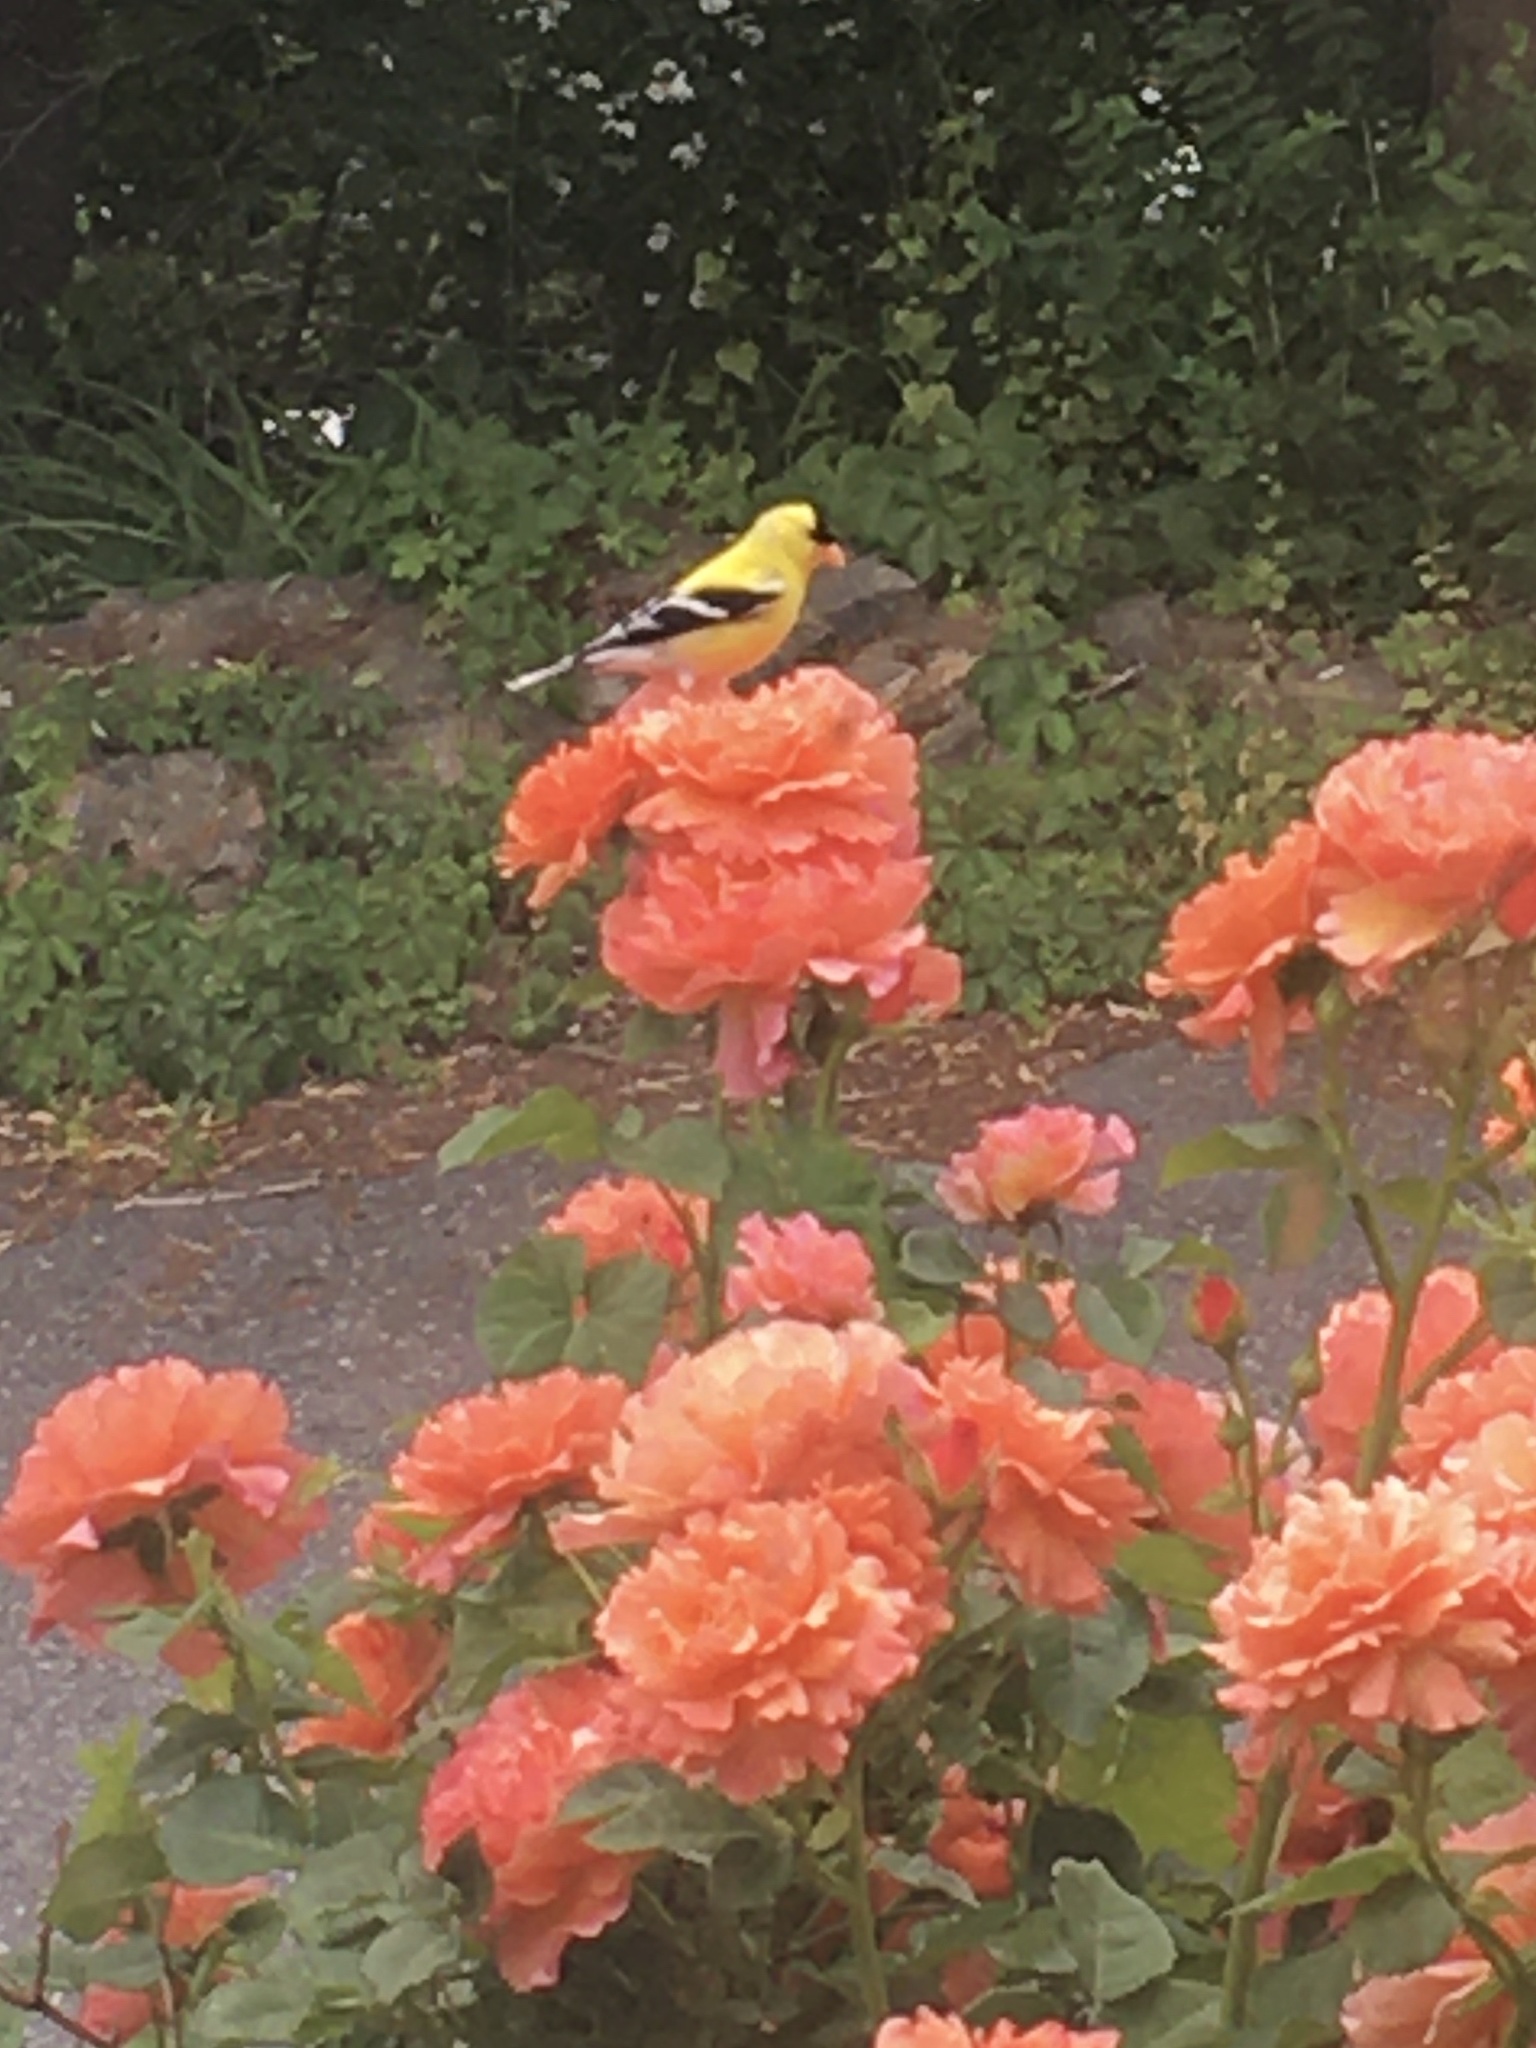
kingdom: Animalia
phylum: Chordata
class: Aves
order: Passeriformes
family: Fringillidae
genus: Spinus
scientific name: Spinus tristis
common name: American goldfinch
